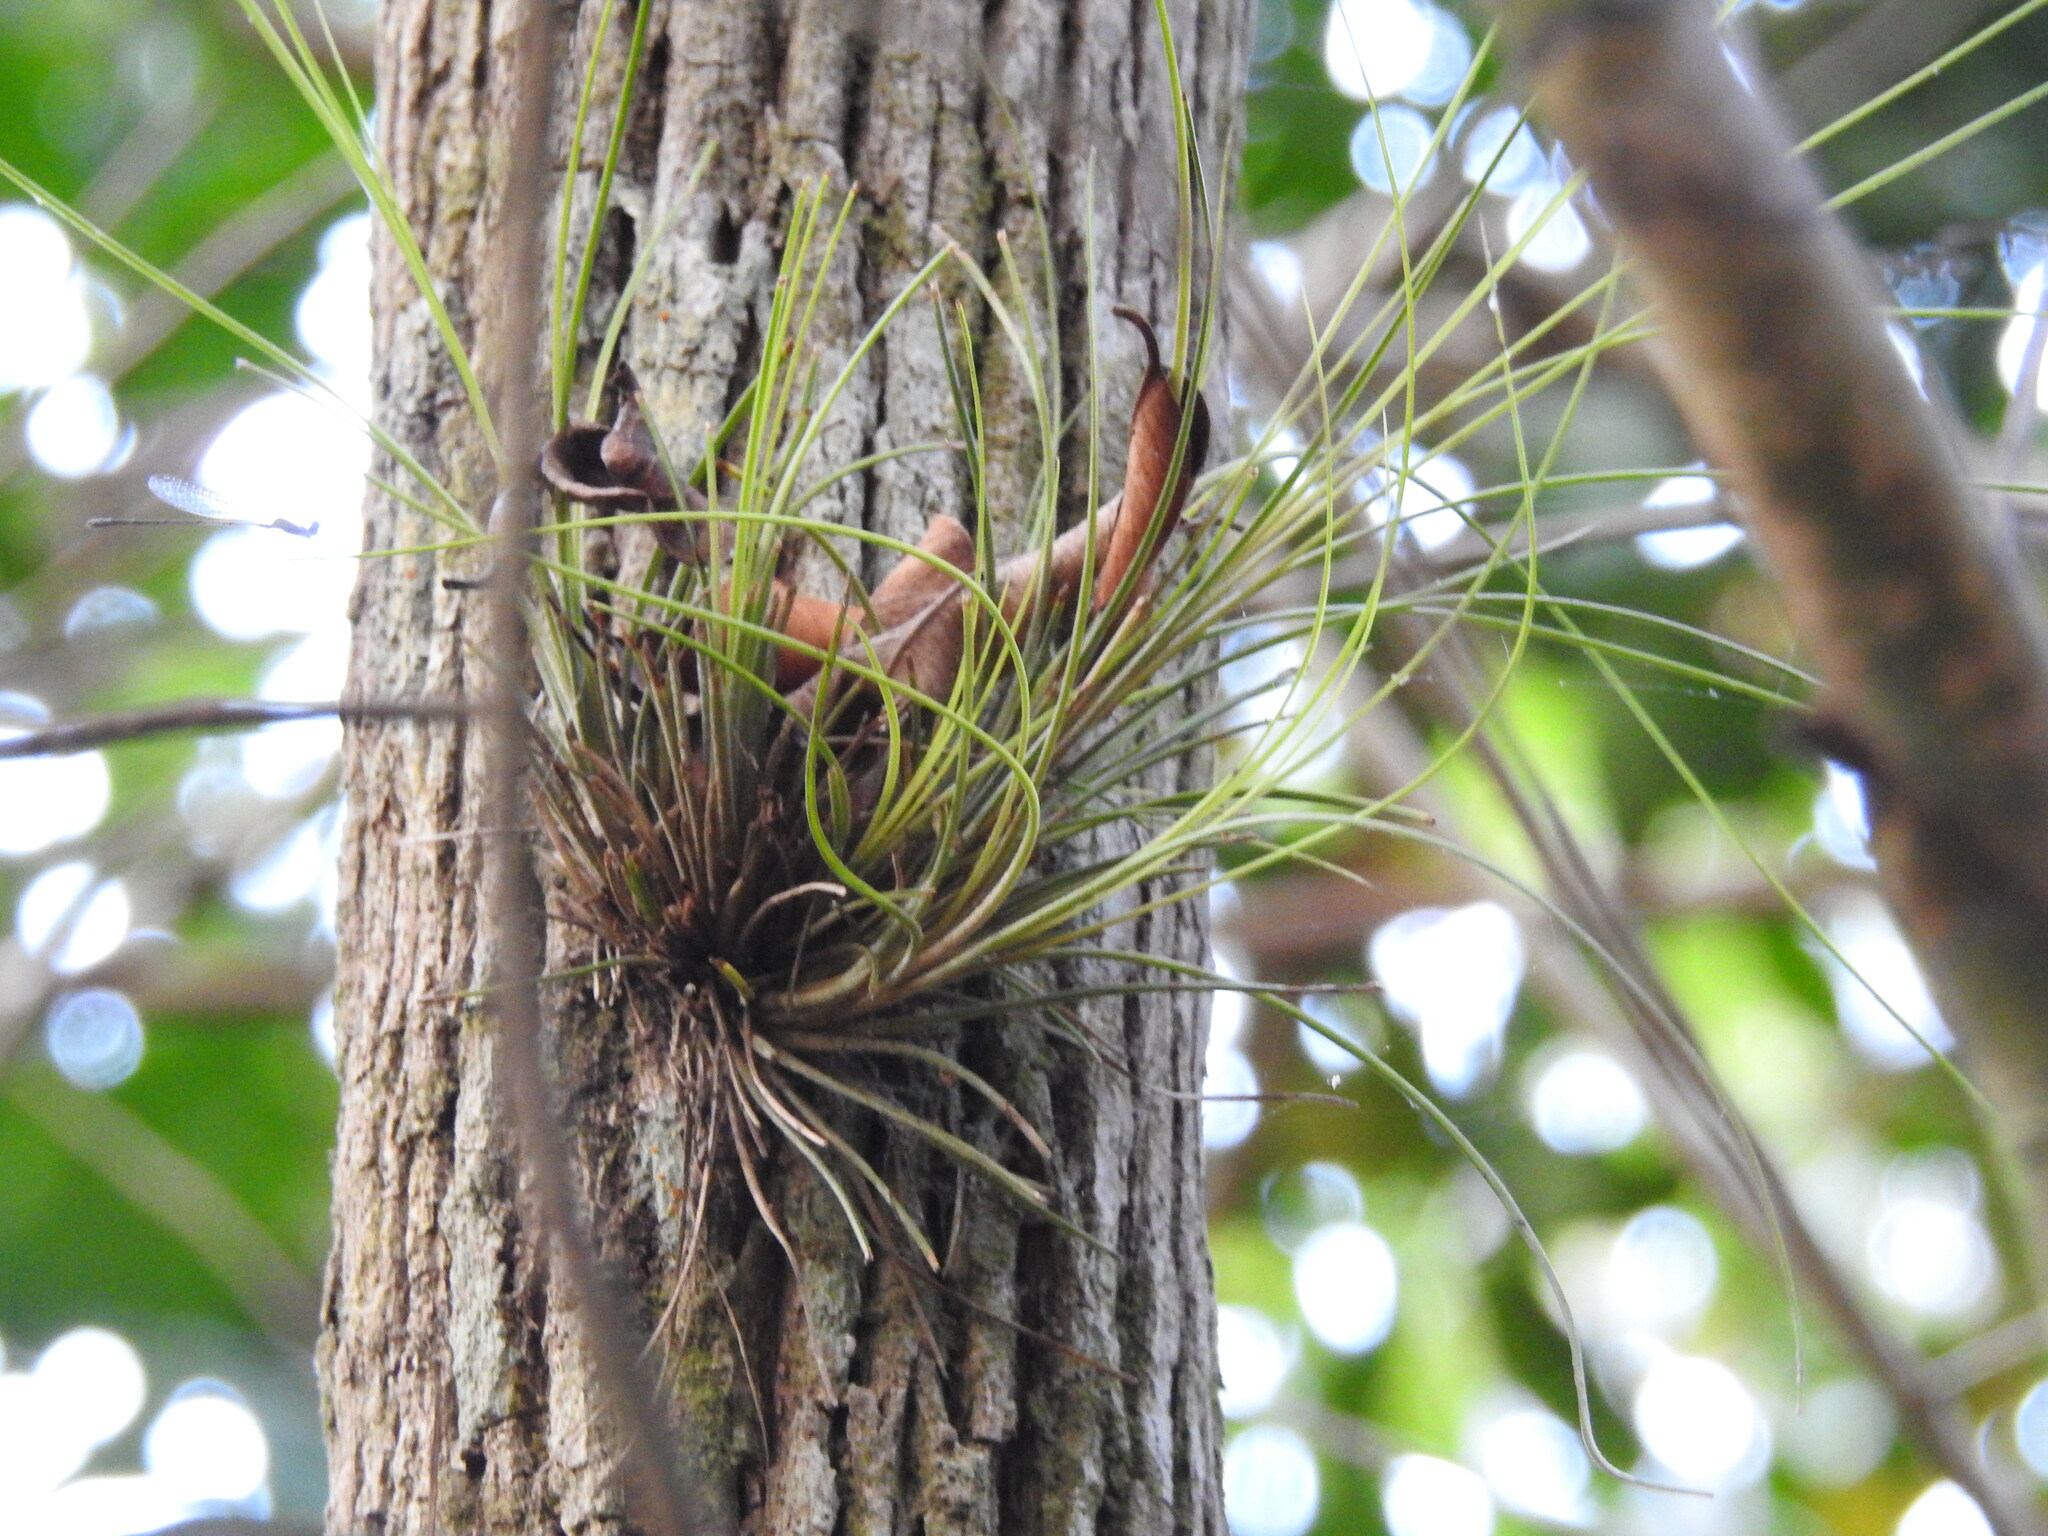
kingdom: Plantae
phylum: Tracheophyta
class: Liliopsida
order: Poales
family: Bromeliaceae
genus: Tillandsia
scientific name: Tillandsia setacea
